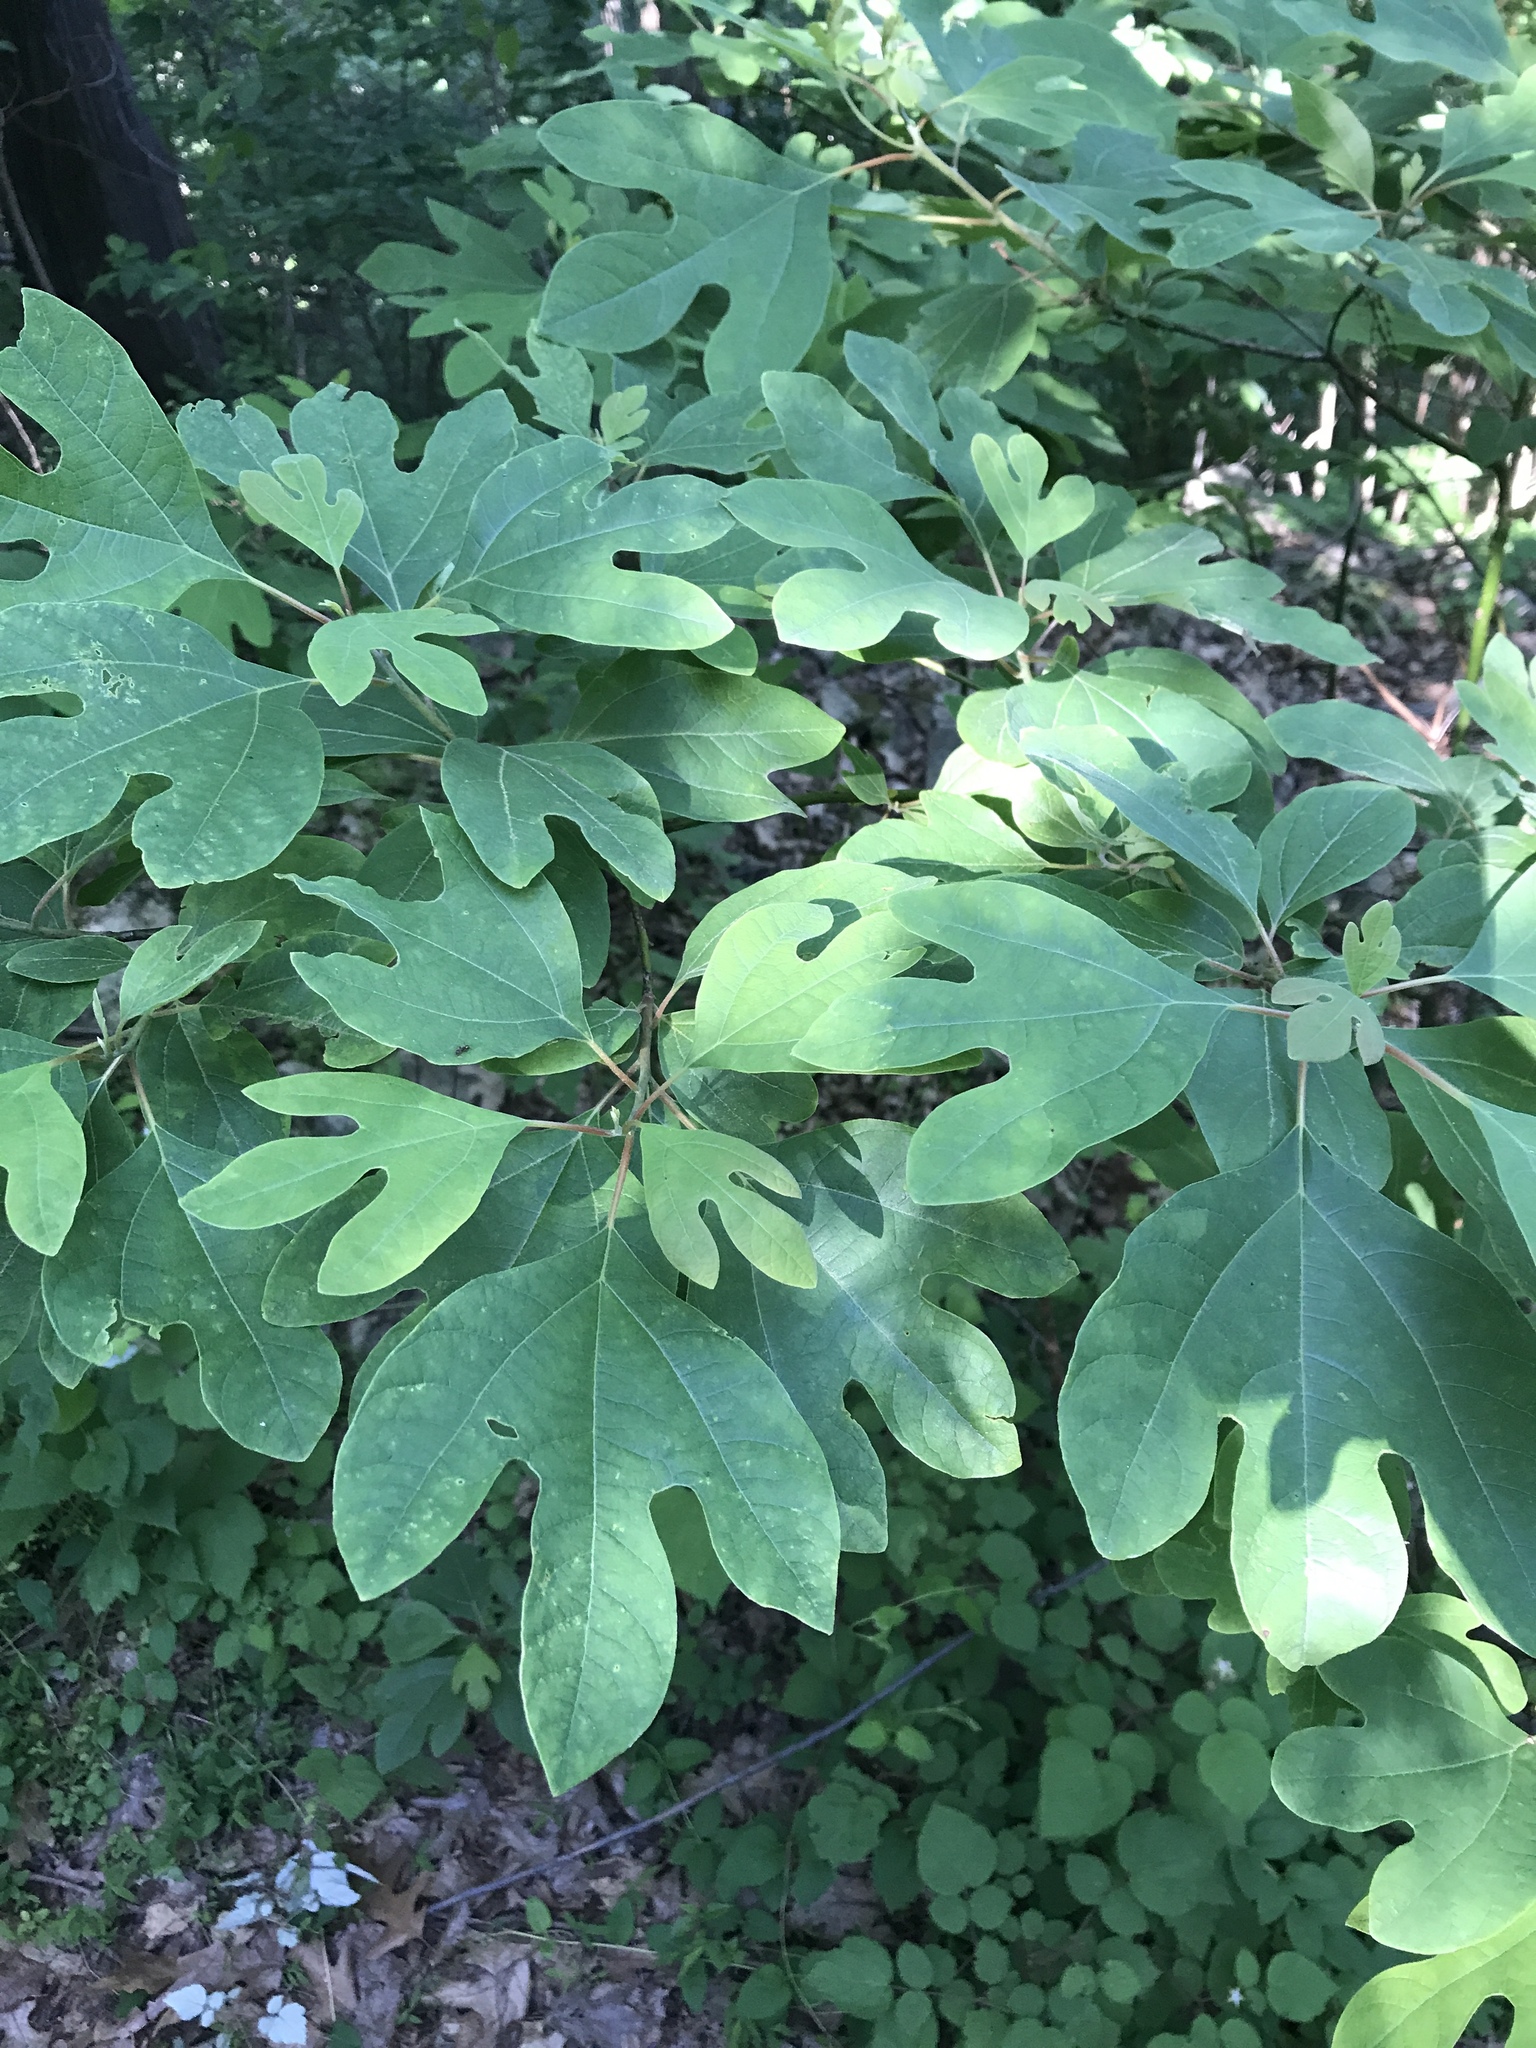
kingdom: Plantae
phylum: Tracheophyta
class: Magnoliopsida
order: Laurales
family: Lauraceae
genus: Sassafras
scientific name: Sassafras albidum
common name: Sassafras
